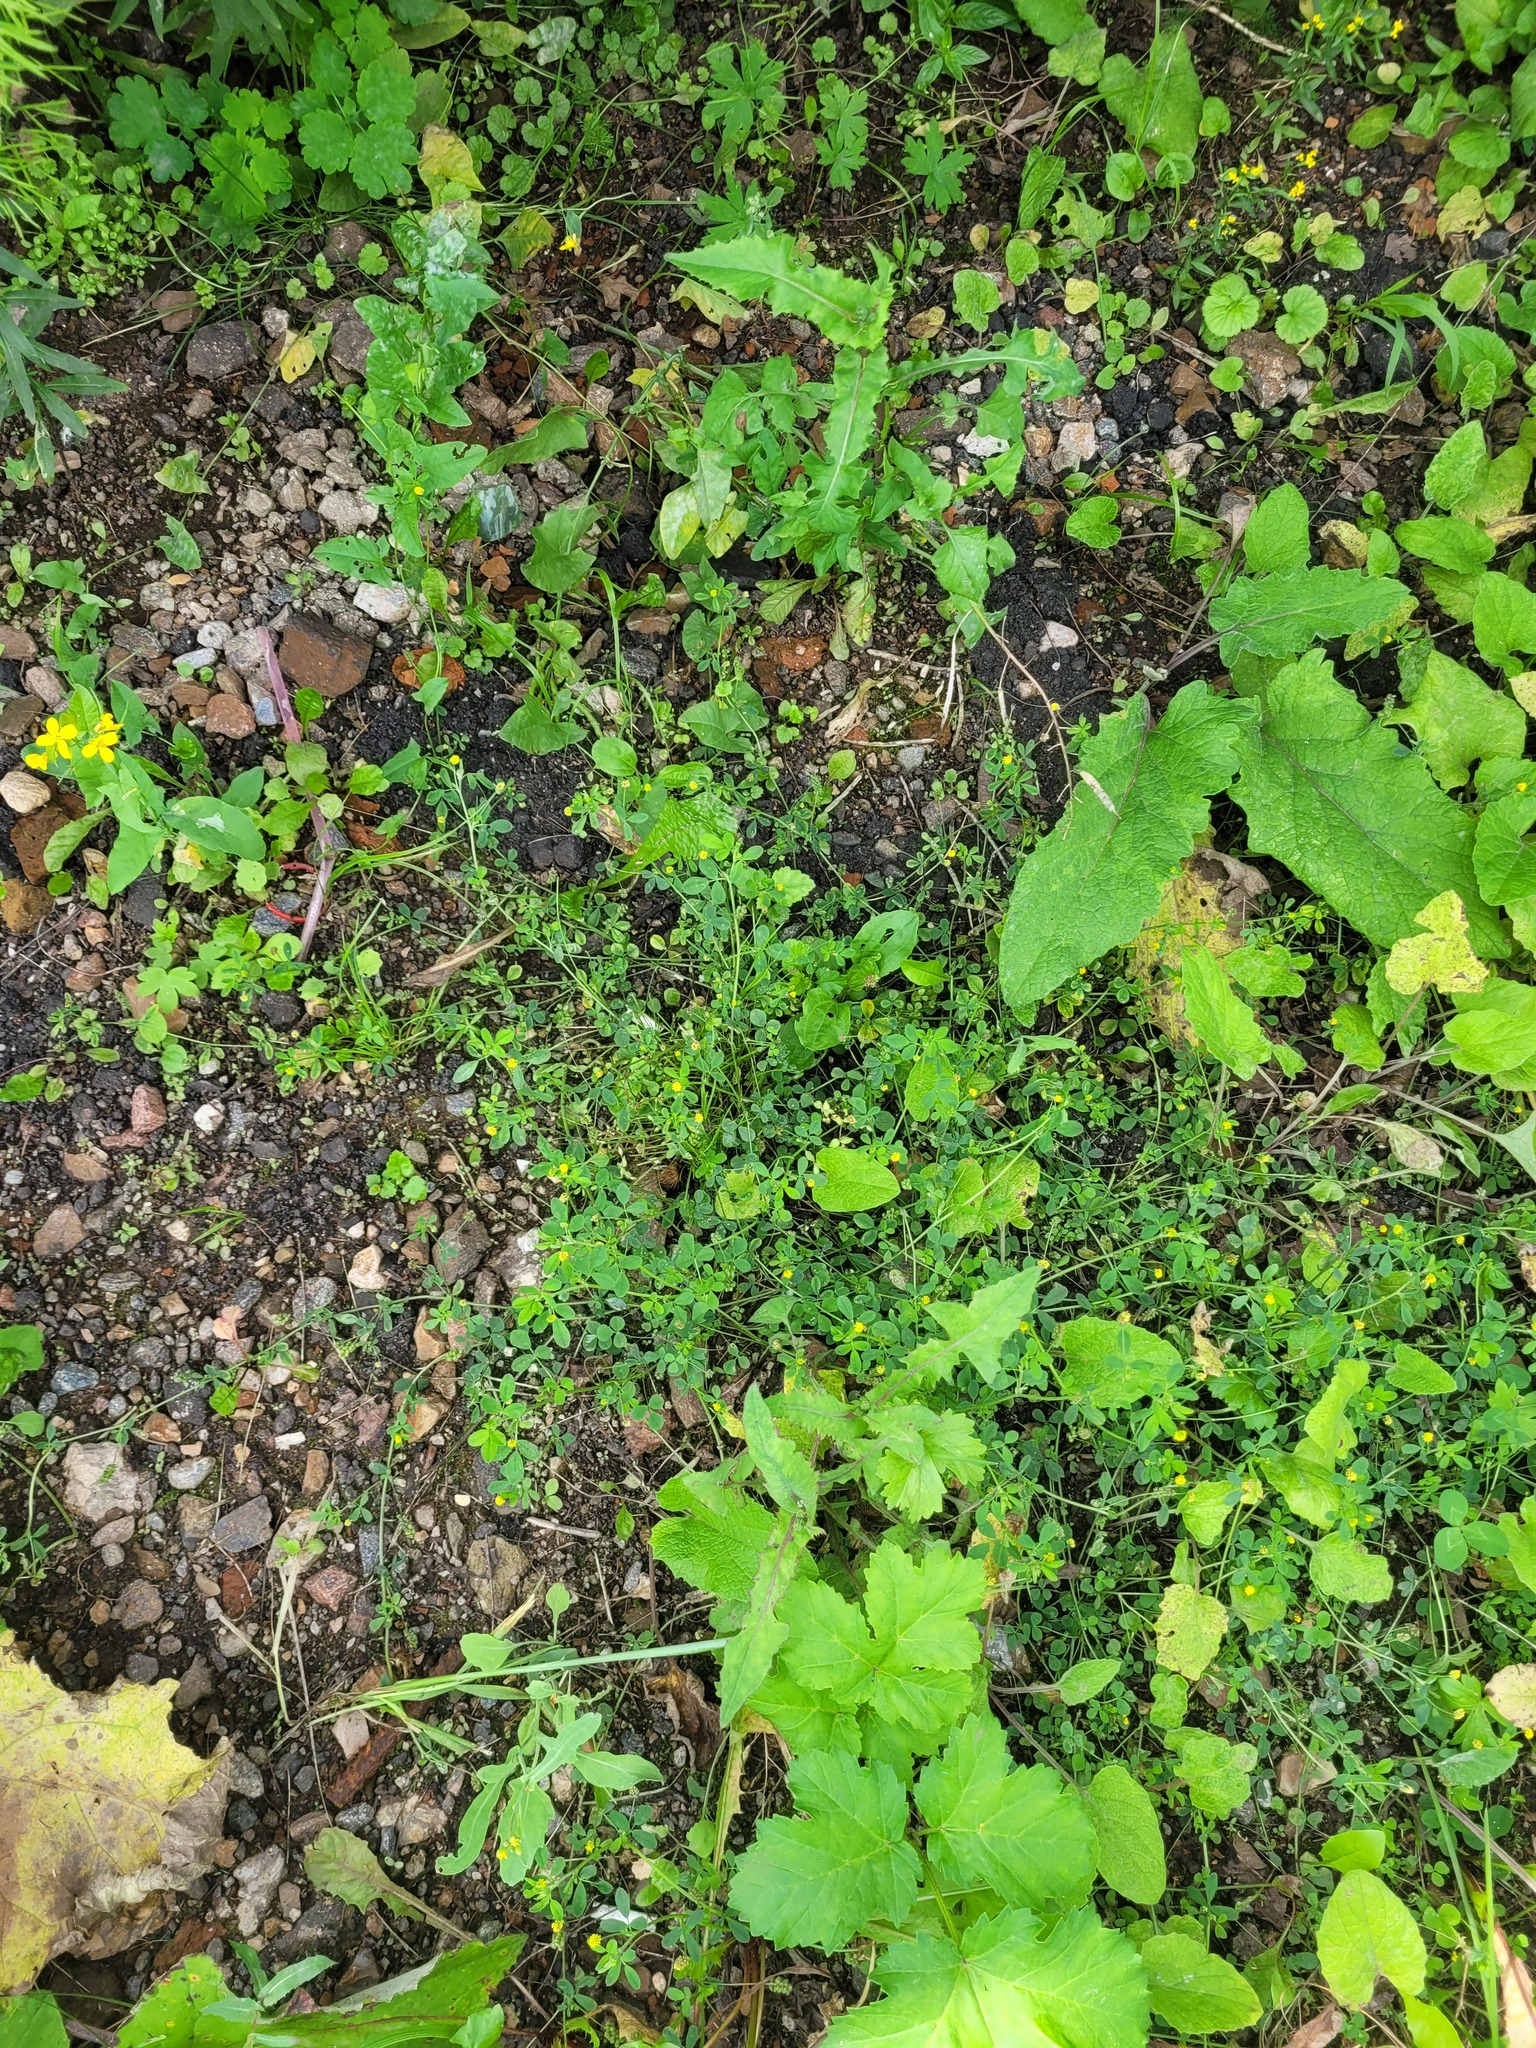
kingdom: Plantae
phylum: Tracheophyta
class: Magnoliopsida
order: Fabales
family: Fabaceae
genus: Medicago
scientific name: Medicago lupulina
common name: Black medick
